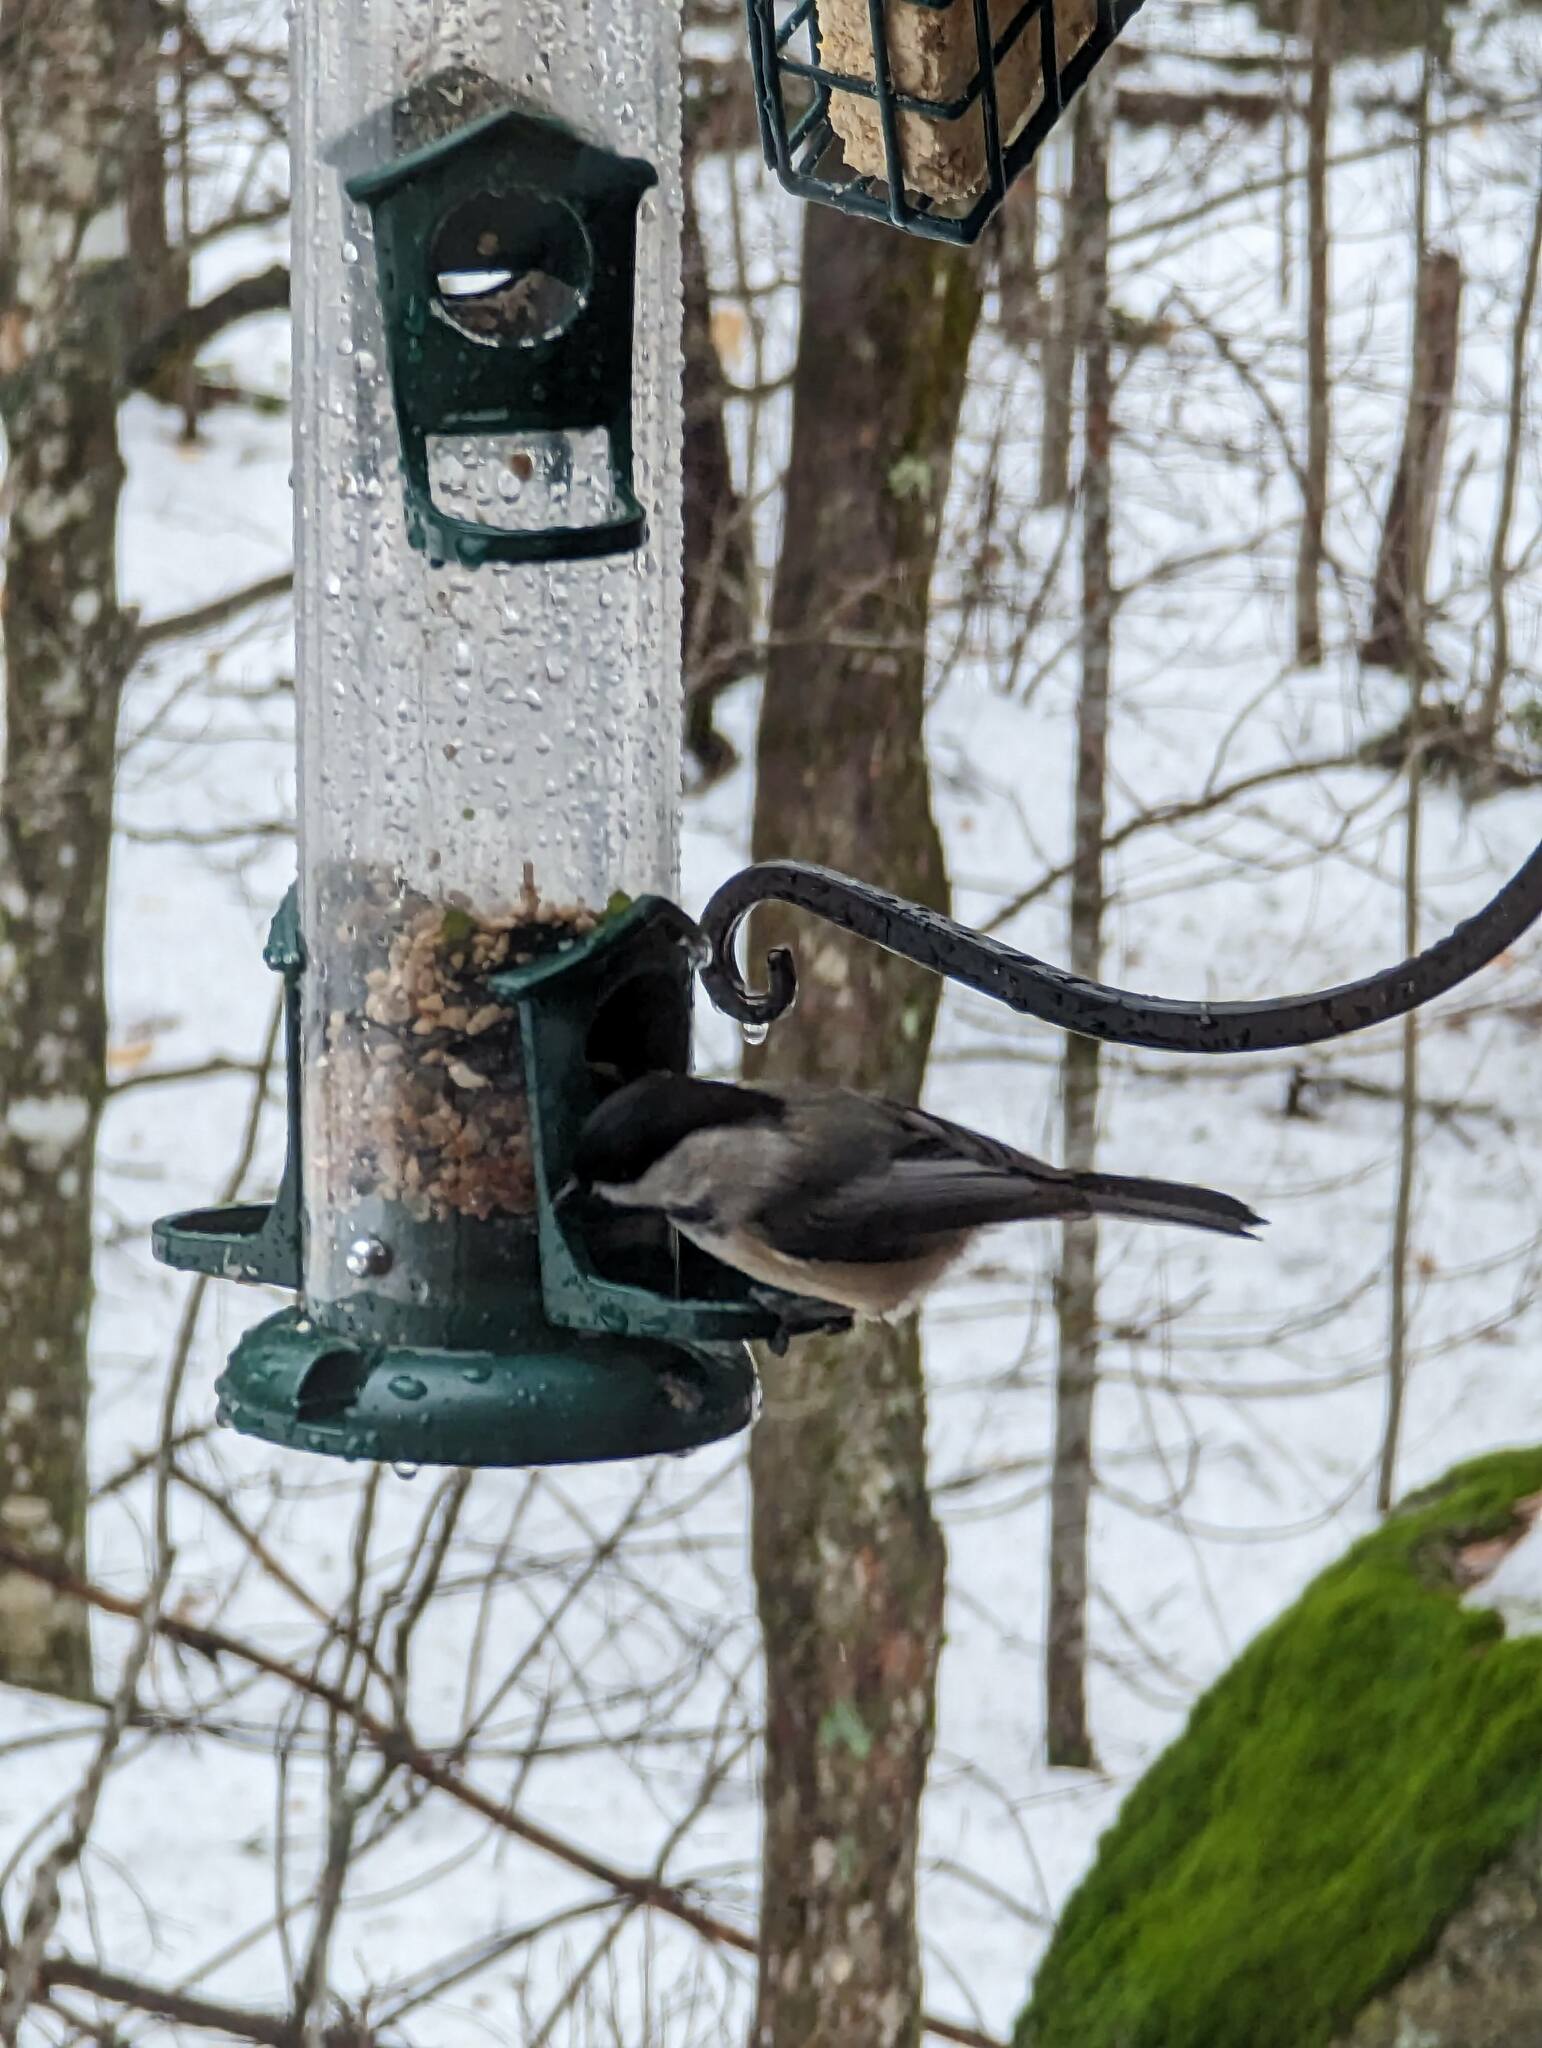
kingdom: Animalia
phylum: Chordata
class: Aves
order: Passeriformes
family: Paridae
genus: Poecile
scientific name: Poecile atricapillus
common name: Black-capped chickadee
